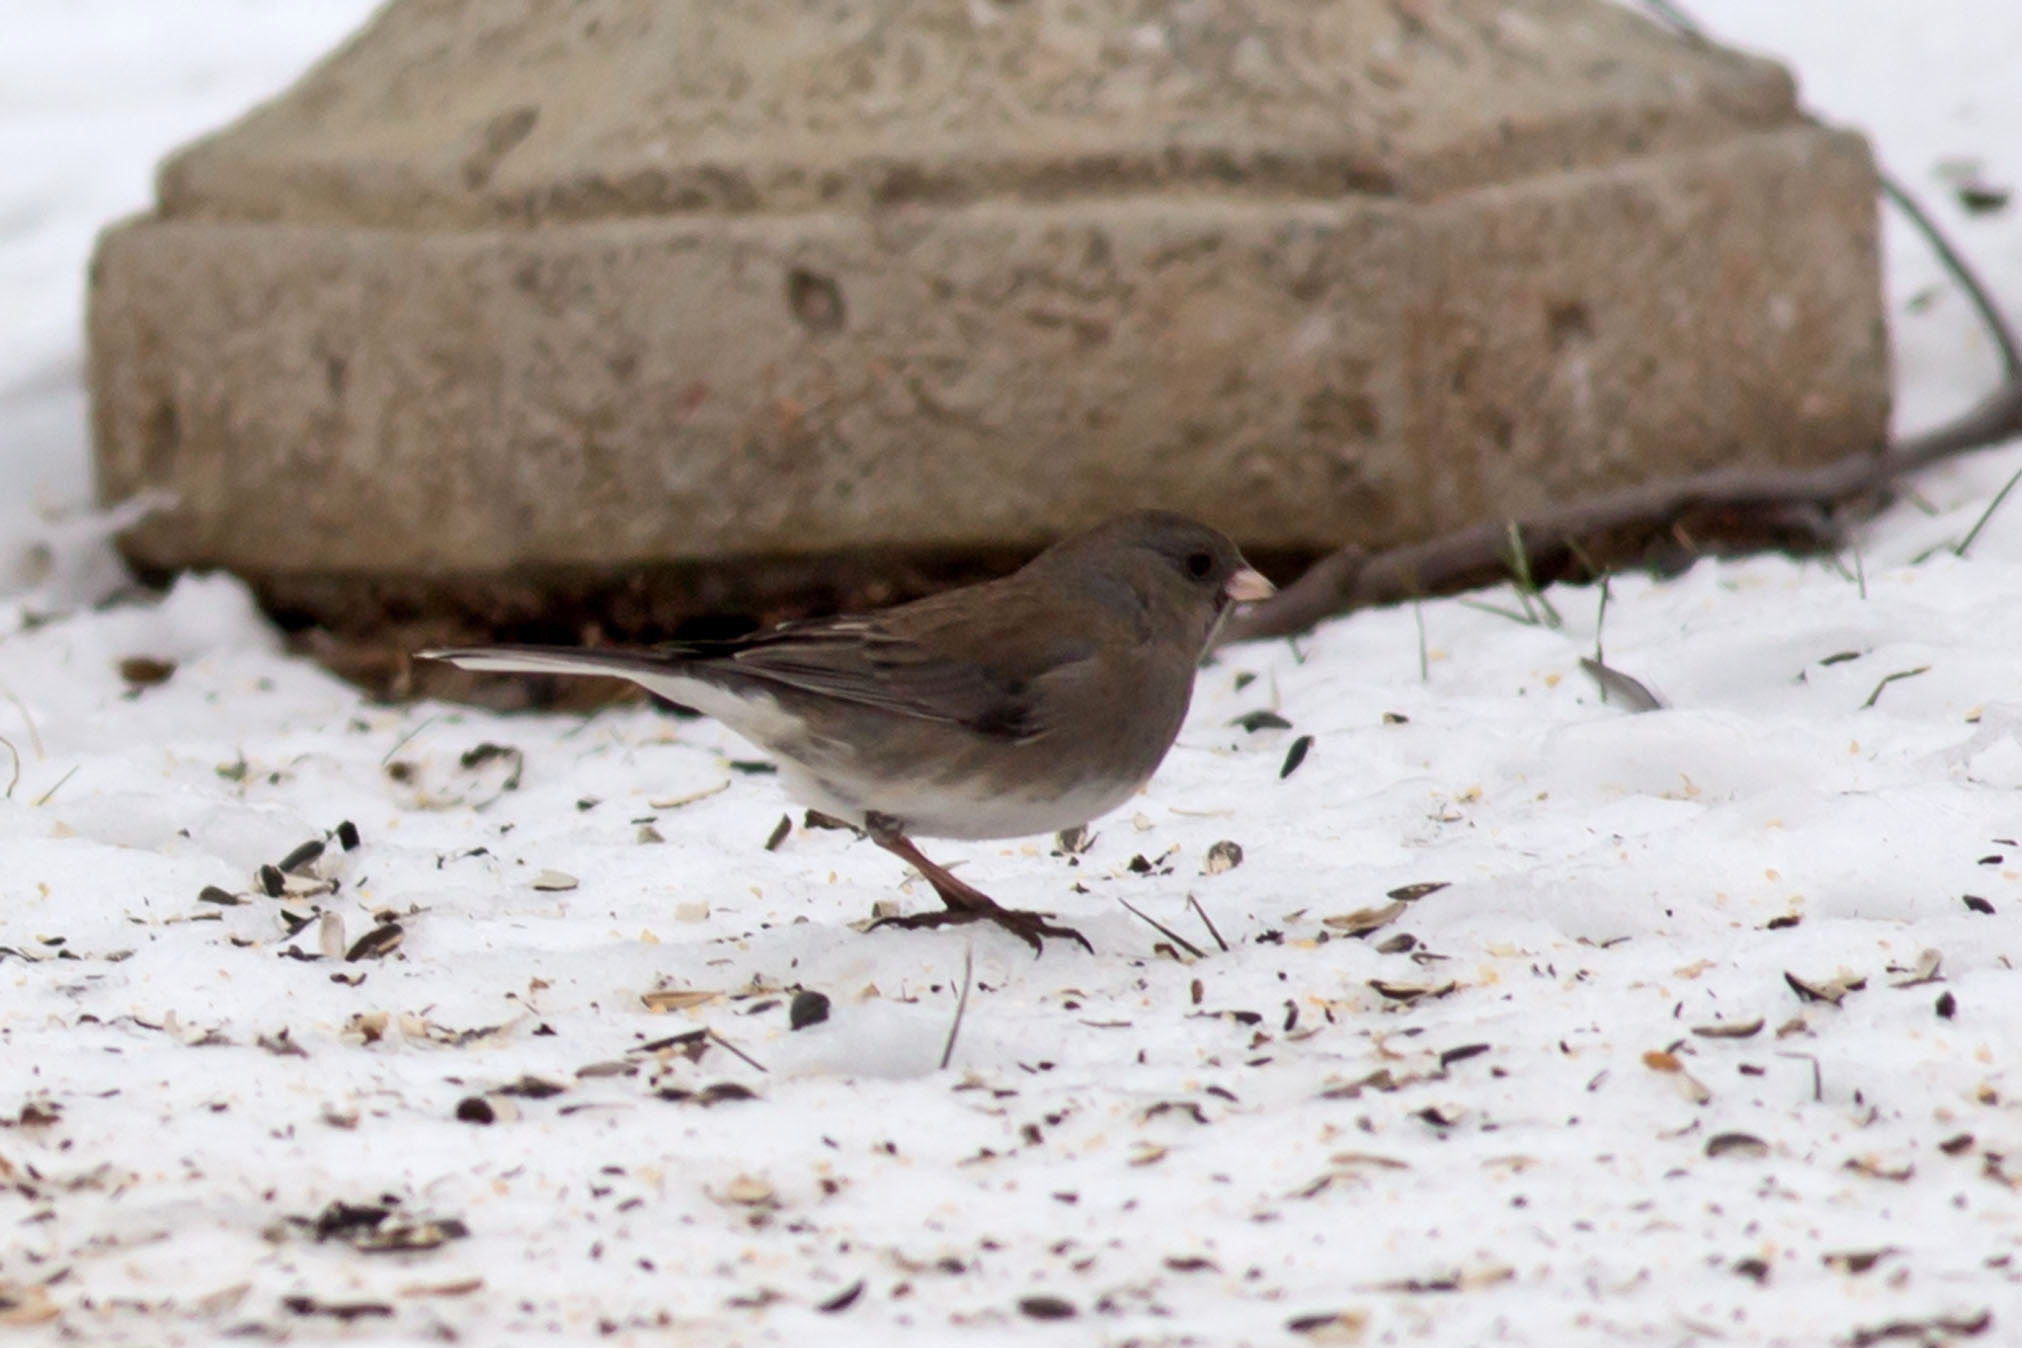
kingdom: Animalia
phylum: Chordata
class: Aves
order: Passeriformes
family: Passerellidae
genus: Junco
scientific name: Junco hyemalis
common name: Dark-eyed junco
